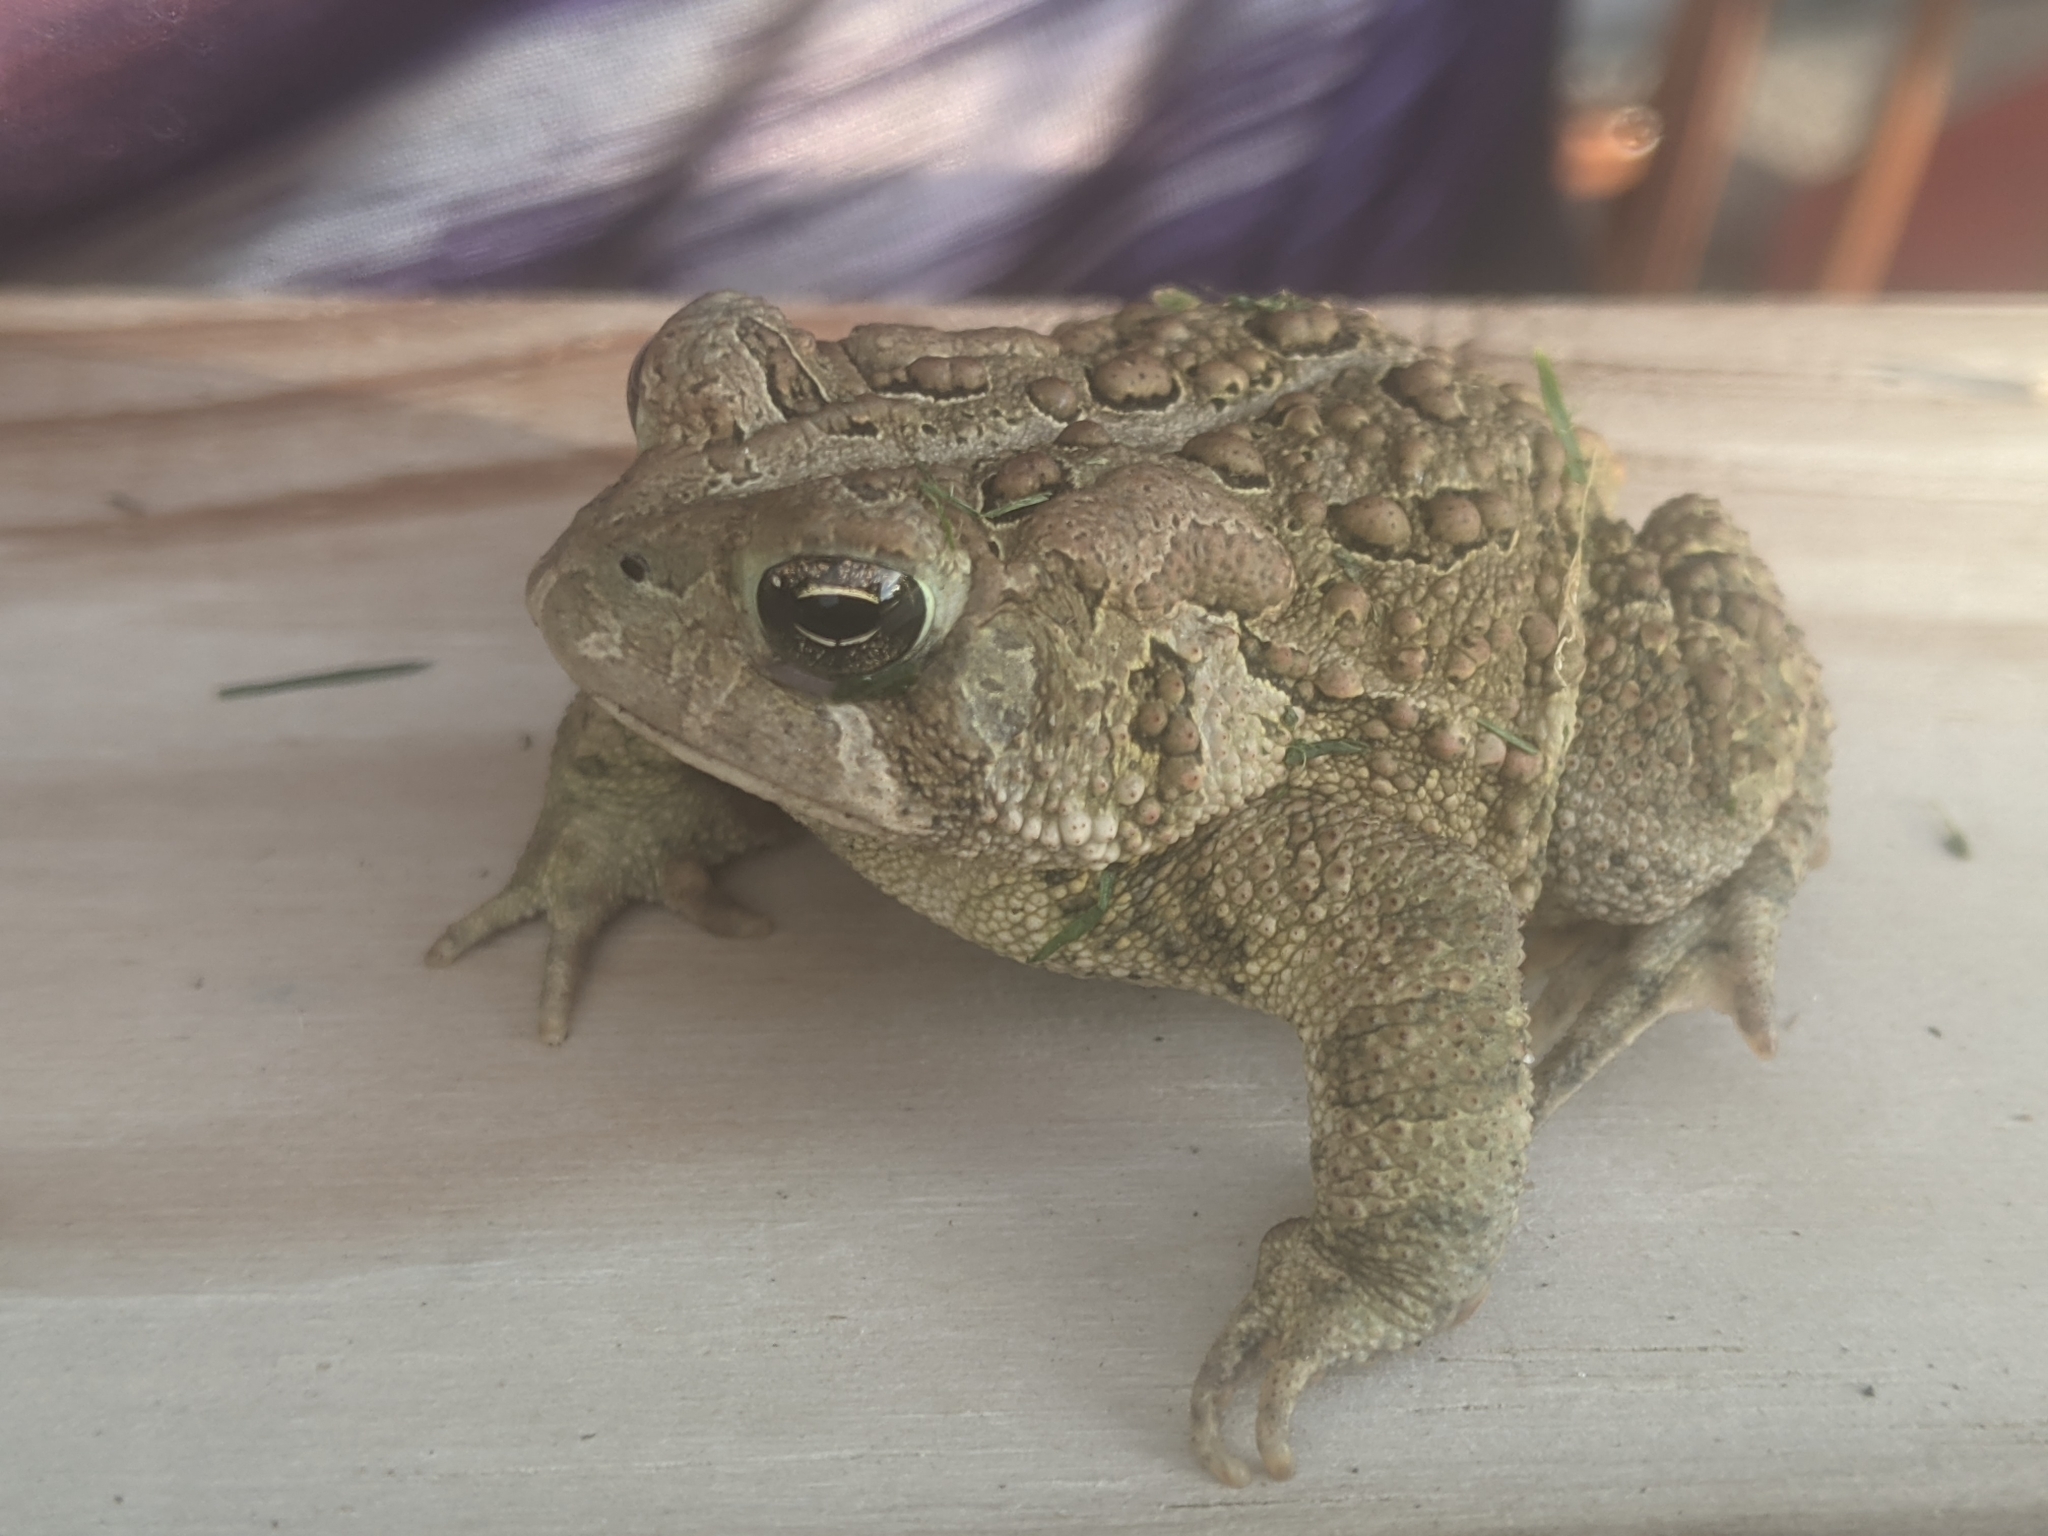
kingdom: Animalia
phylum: Chordata
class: Amphibia
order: Anura
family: Bufonidae
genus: Anaxyrus
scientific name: Anaxyrus americanus
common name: American toad
